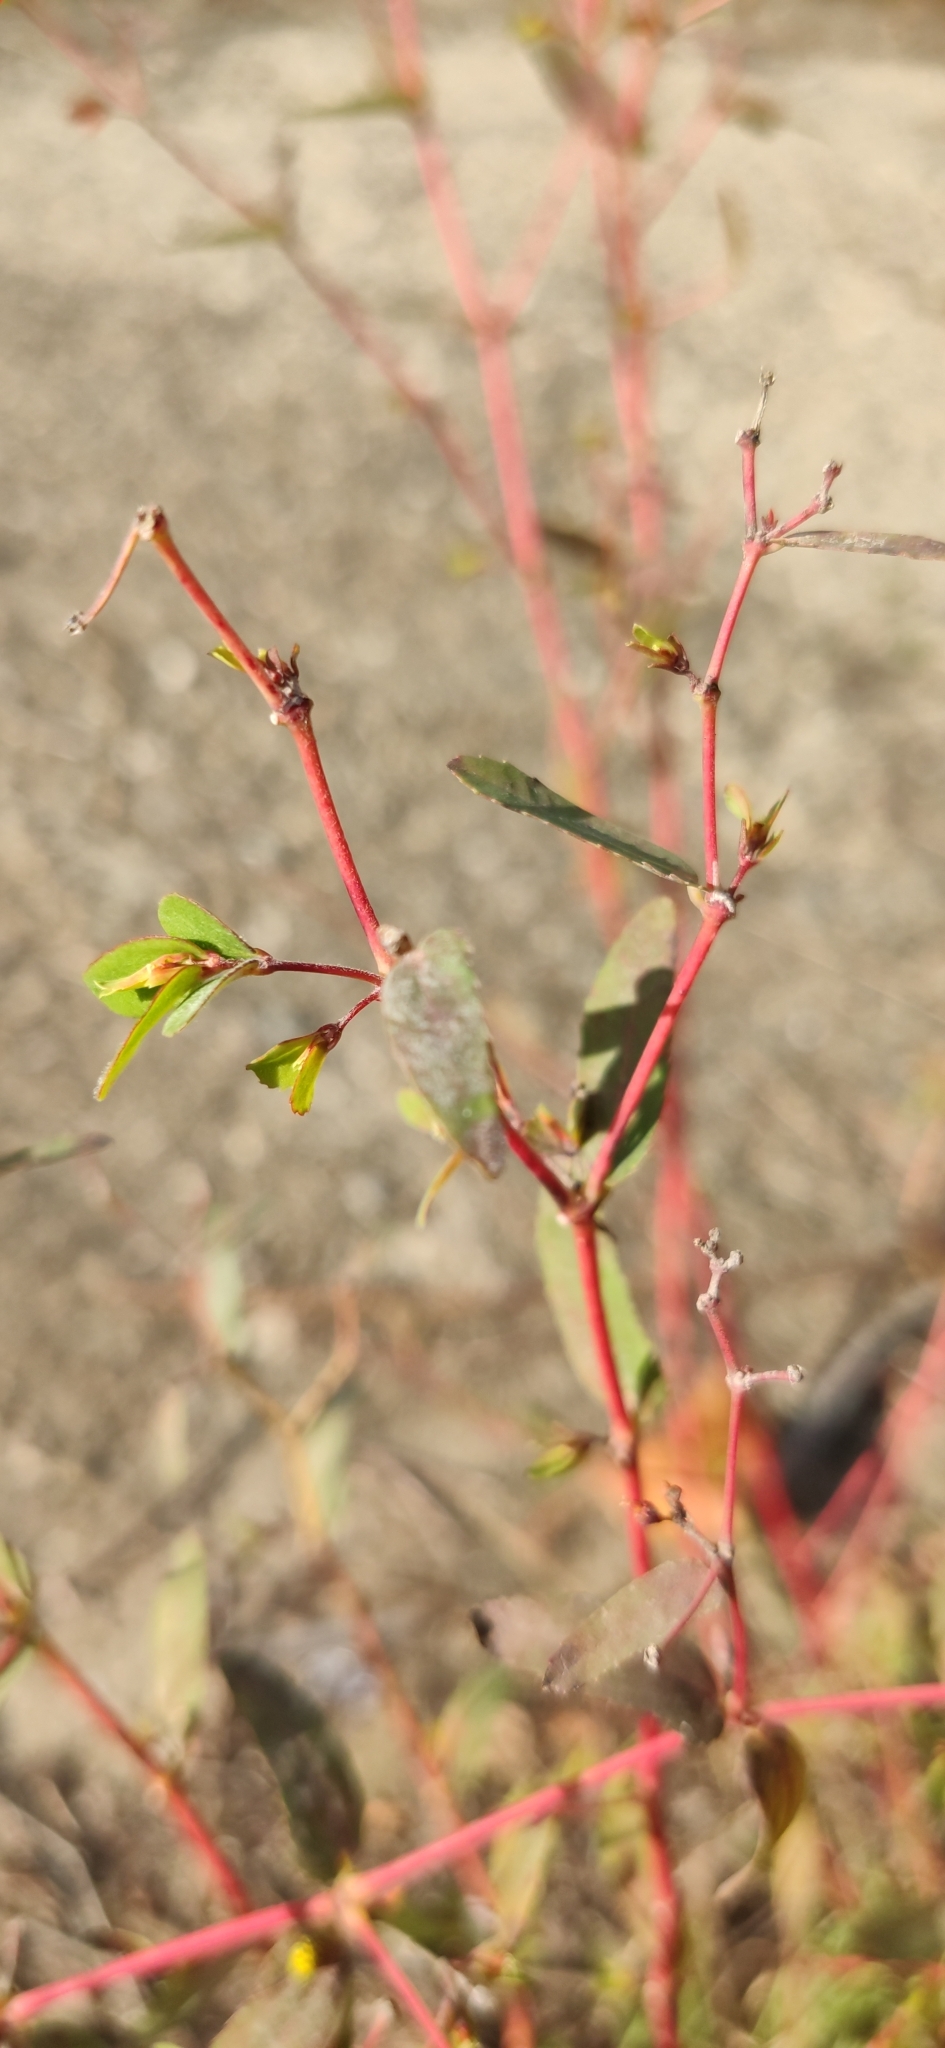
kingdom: Plantae
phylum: Tracheophyta
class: Magnoliopsida
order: Malpighiales
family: Euphorbiaceae
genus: Euphorbia
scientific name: Euphorbia nutans
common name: Eyebane
